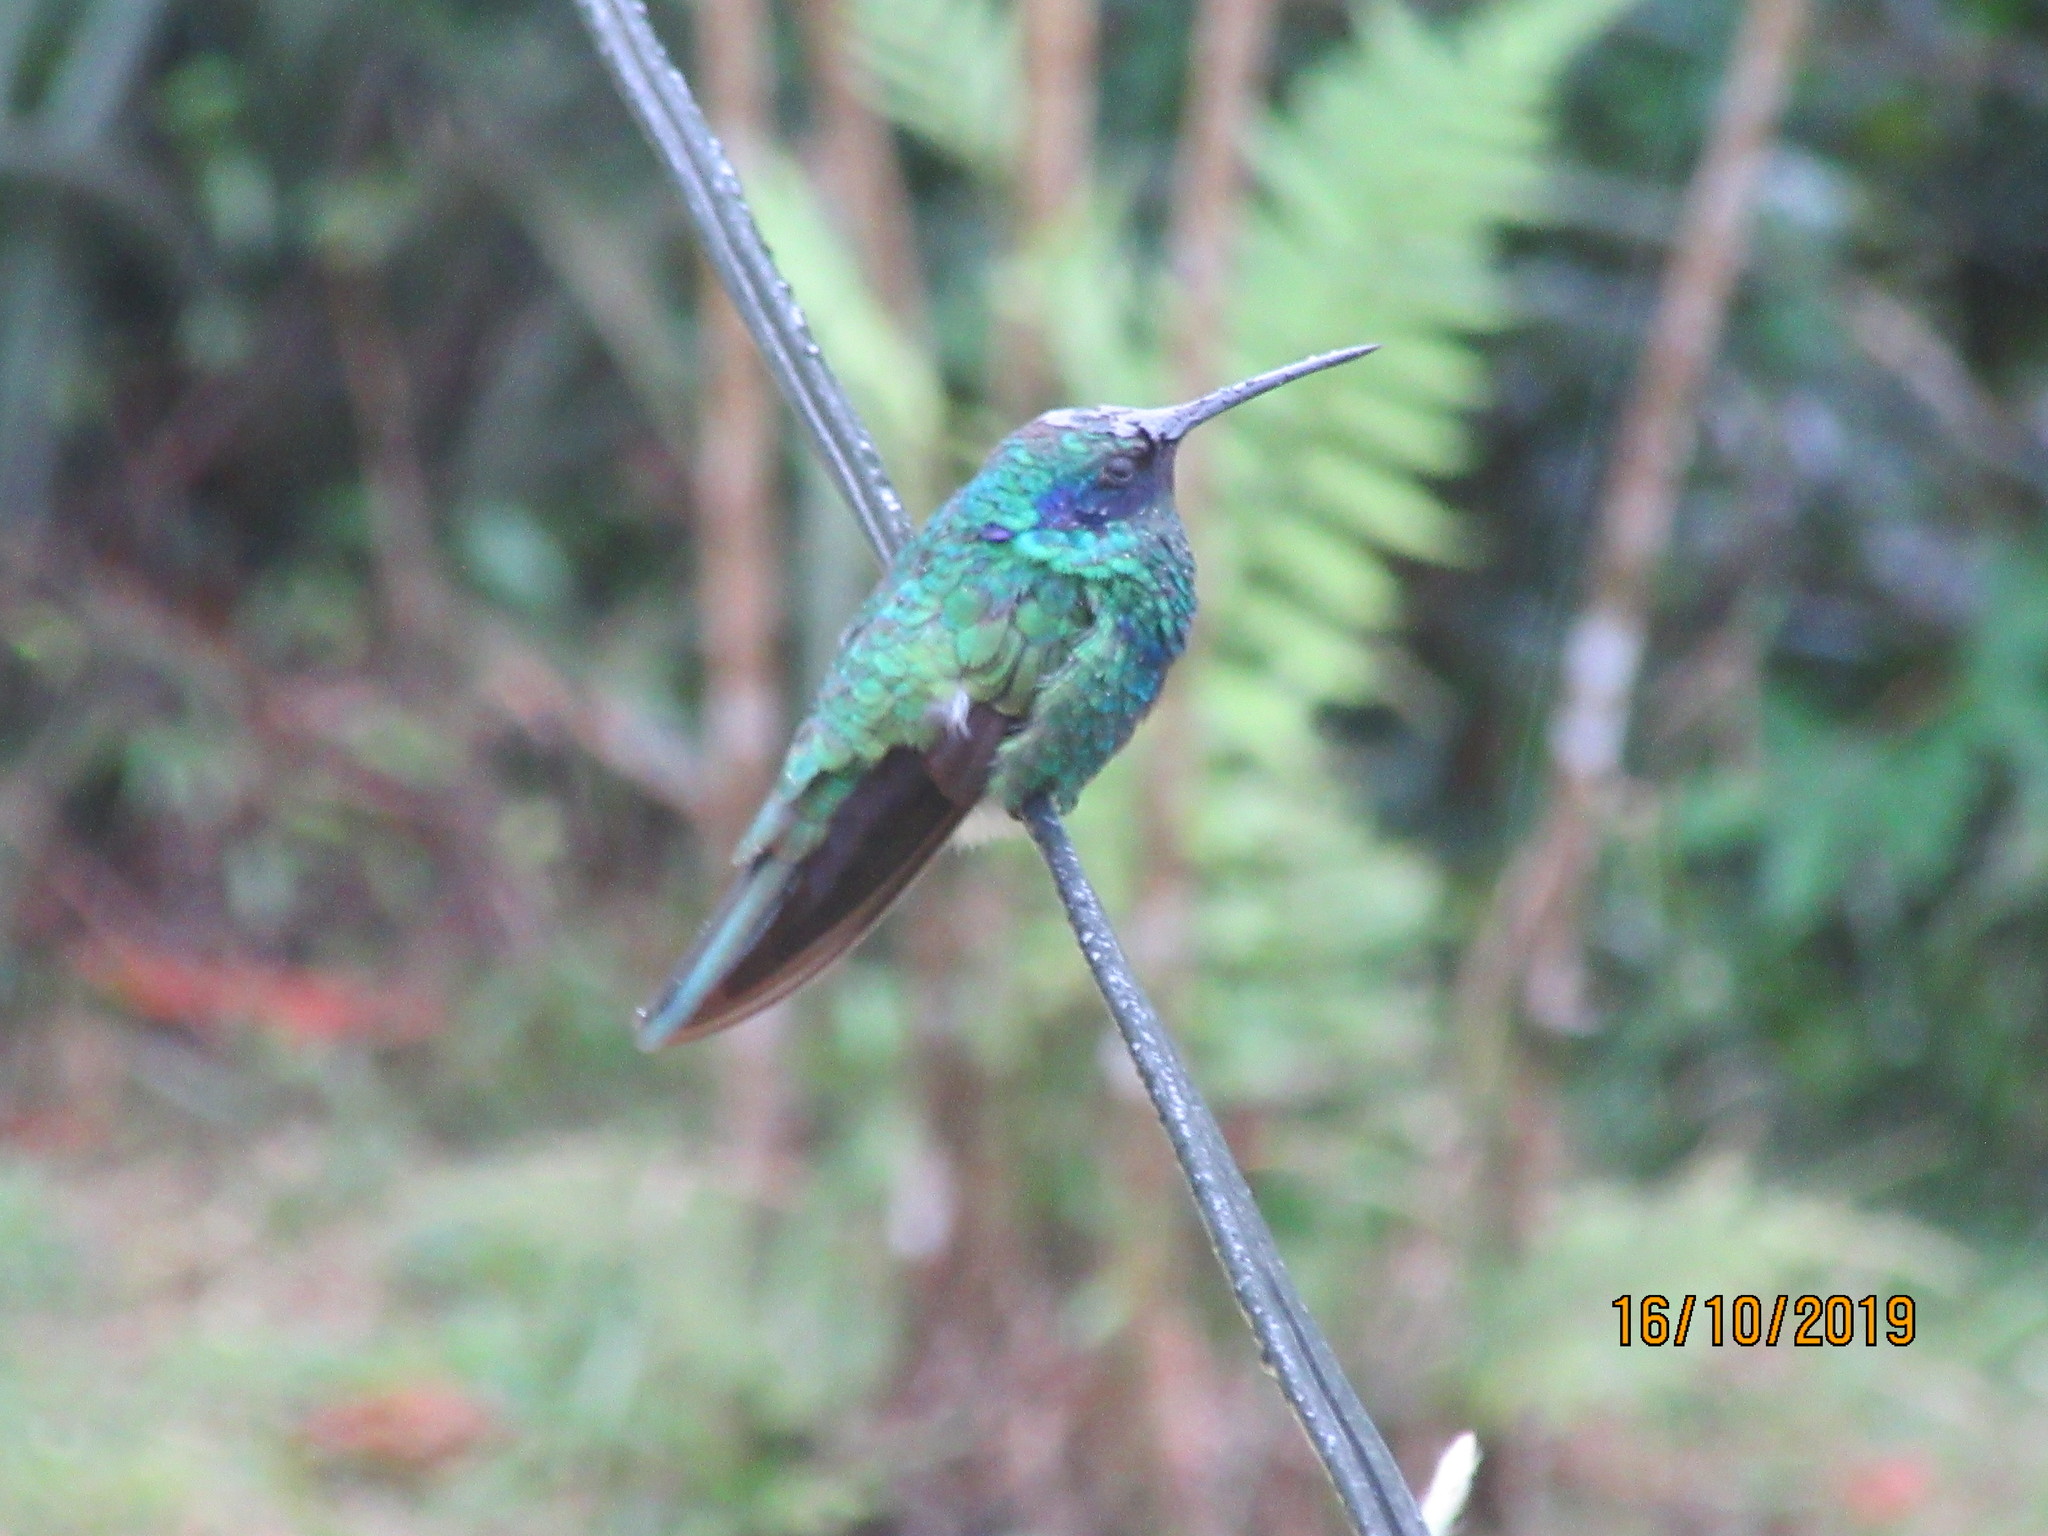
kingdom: Animalia
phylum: Chordata
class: Aves
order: Apodiformes
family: Trochilidae
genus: Colibri
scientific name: Colibri coruscans
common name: Sparkling violetear
